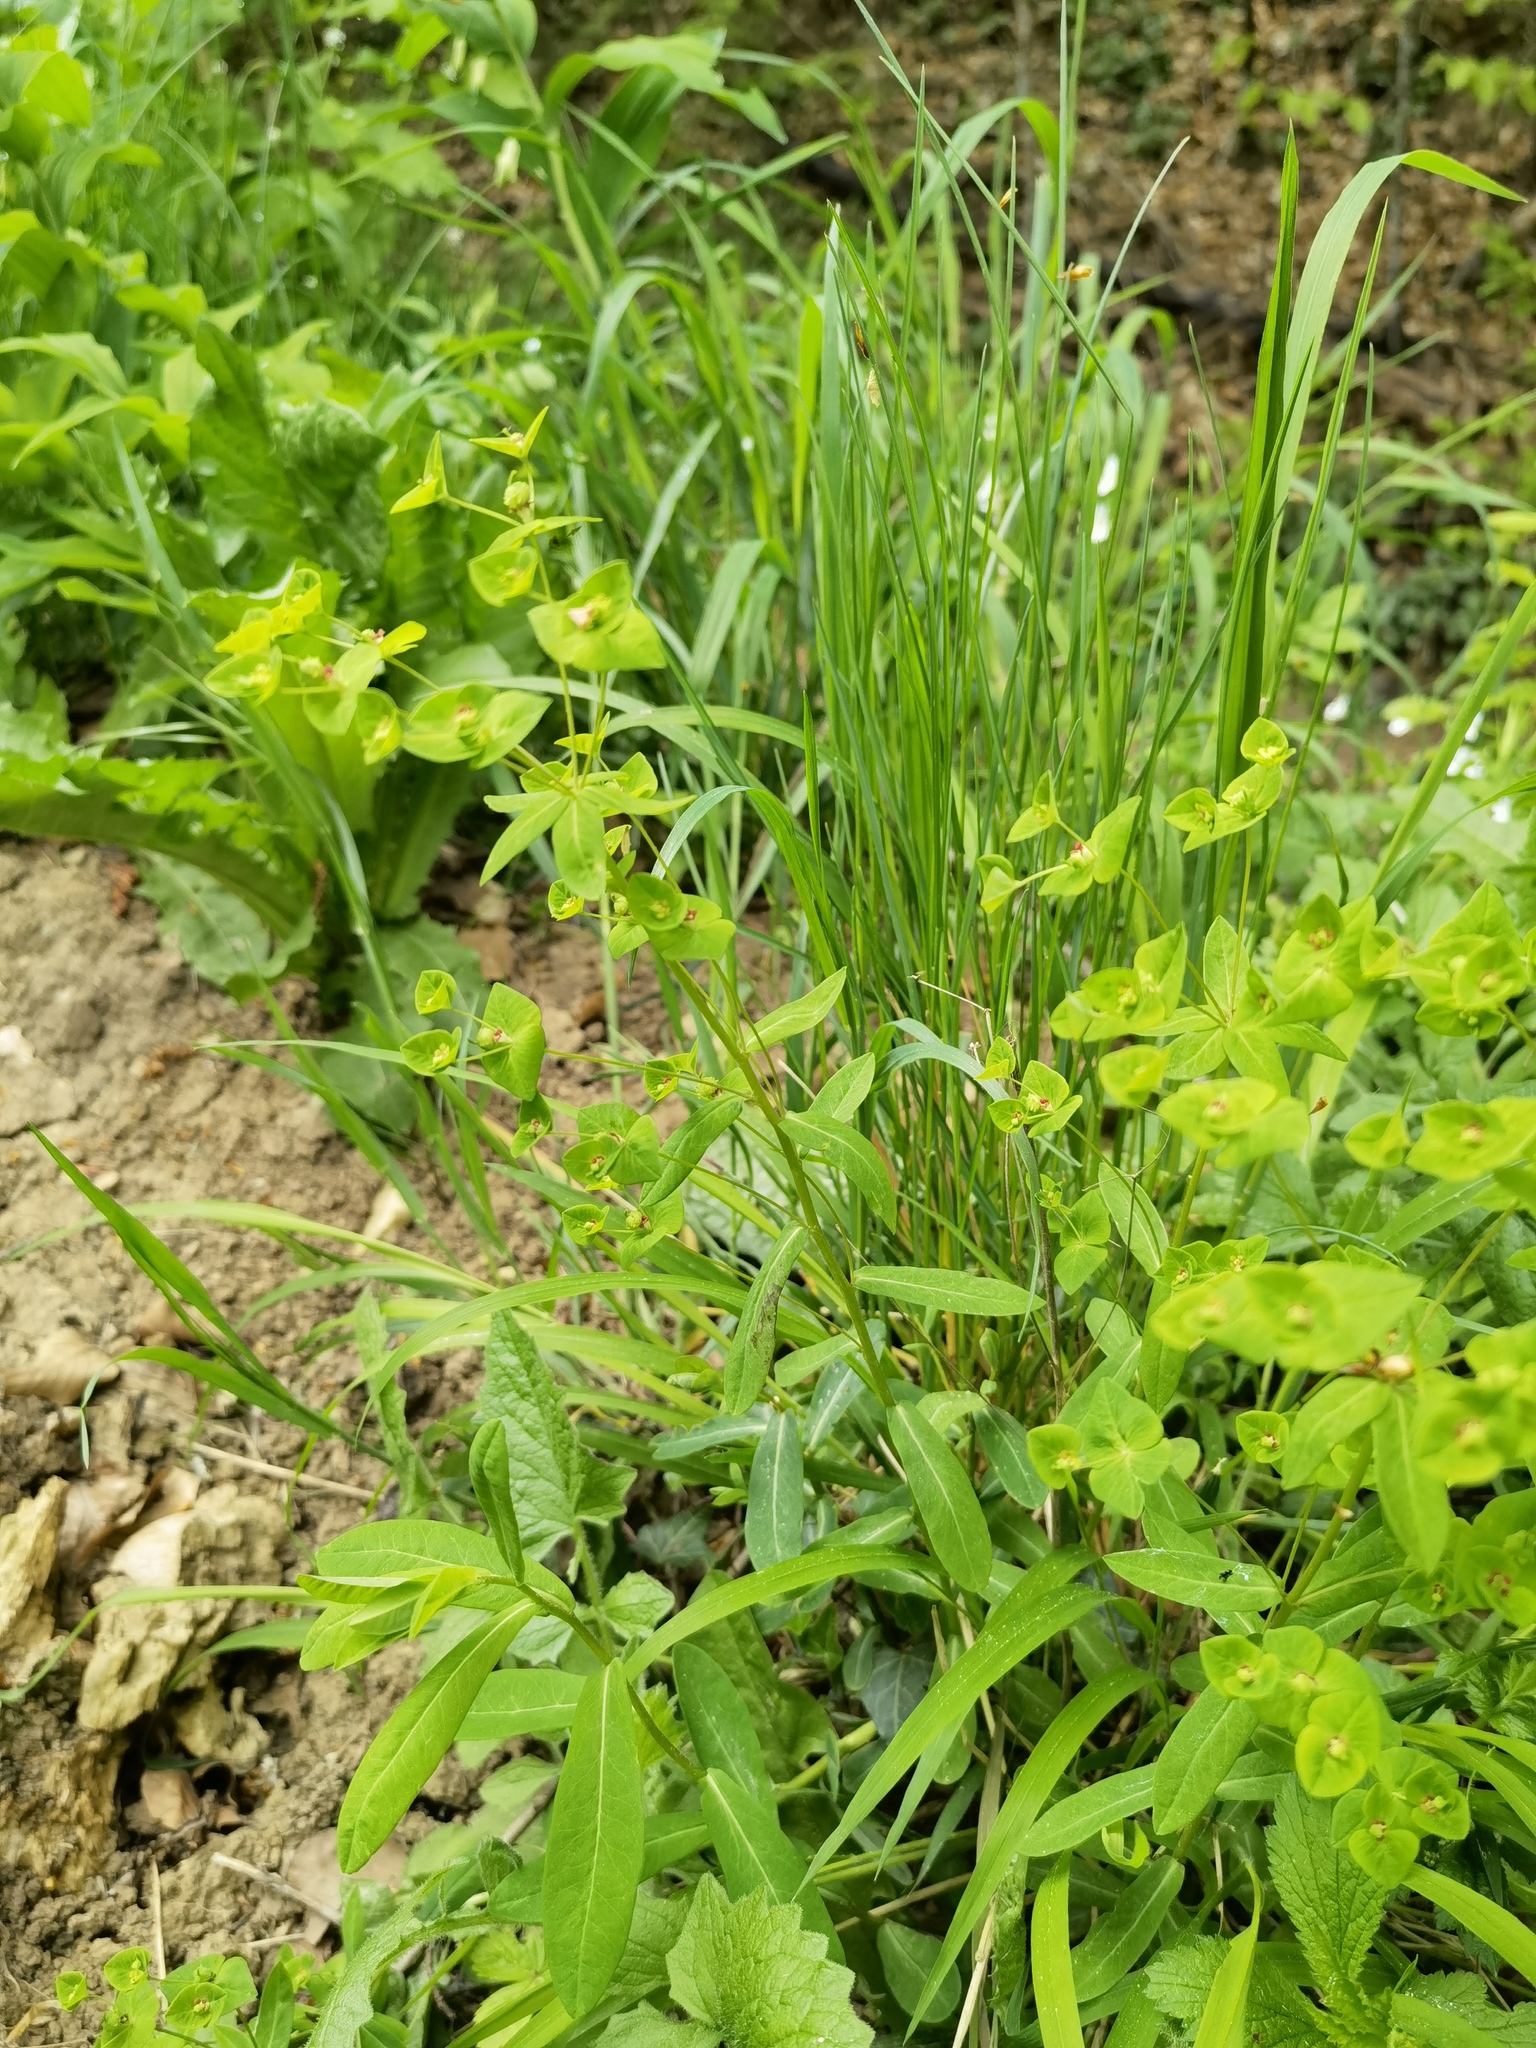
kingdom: Plantae
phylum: Tracheophyta
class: Magnoliopsida
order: Malpighiales
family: Euphorbiaceae
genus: Euphorbia
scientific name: Euphorbia dulcis
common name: Sweet spurge
